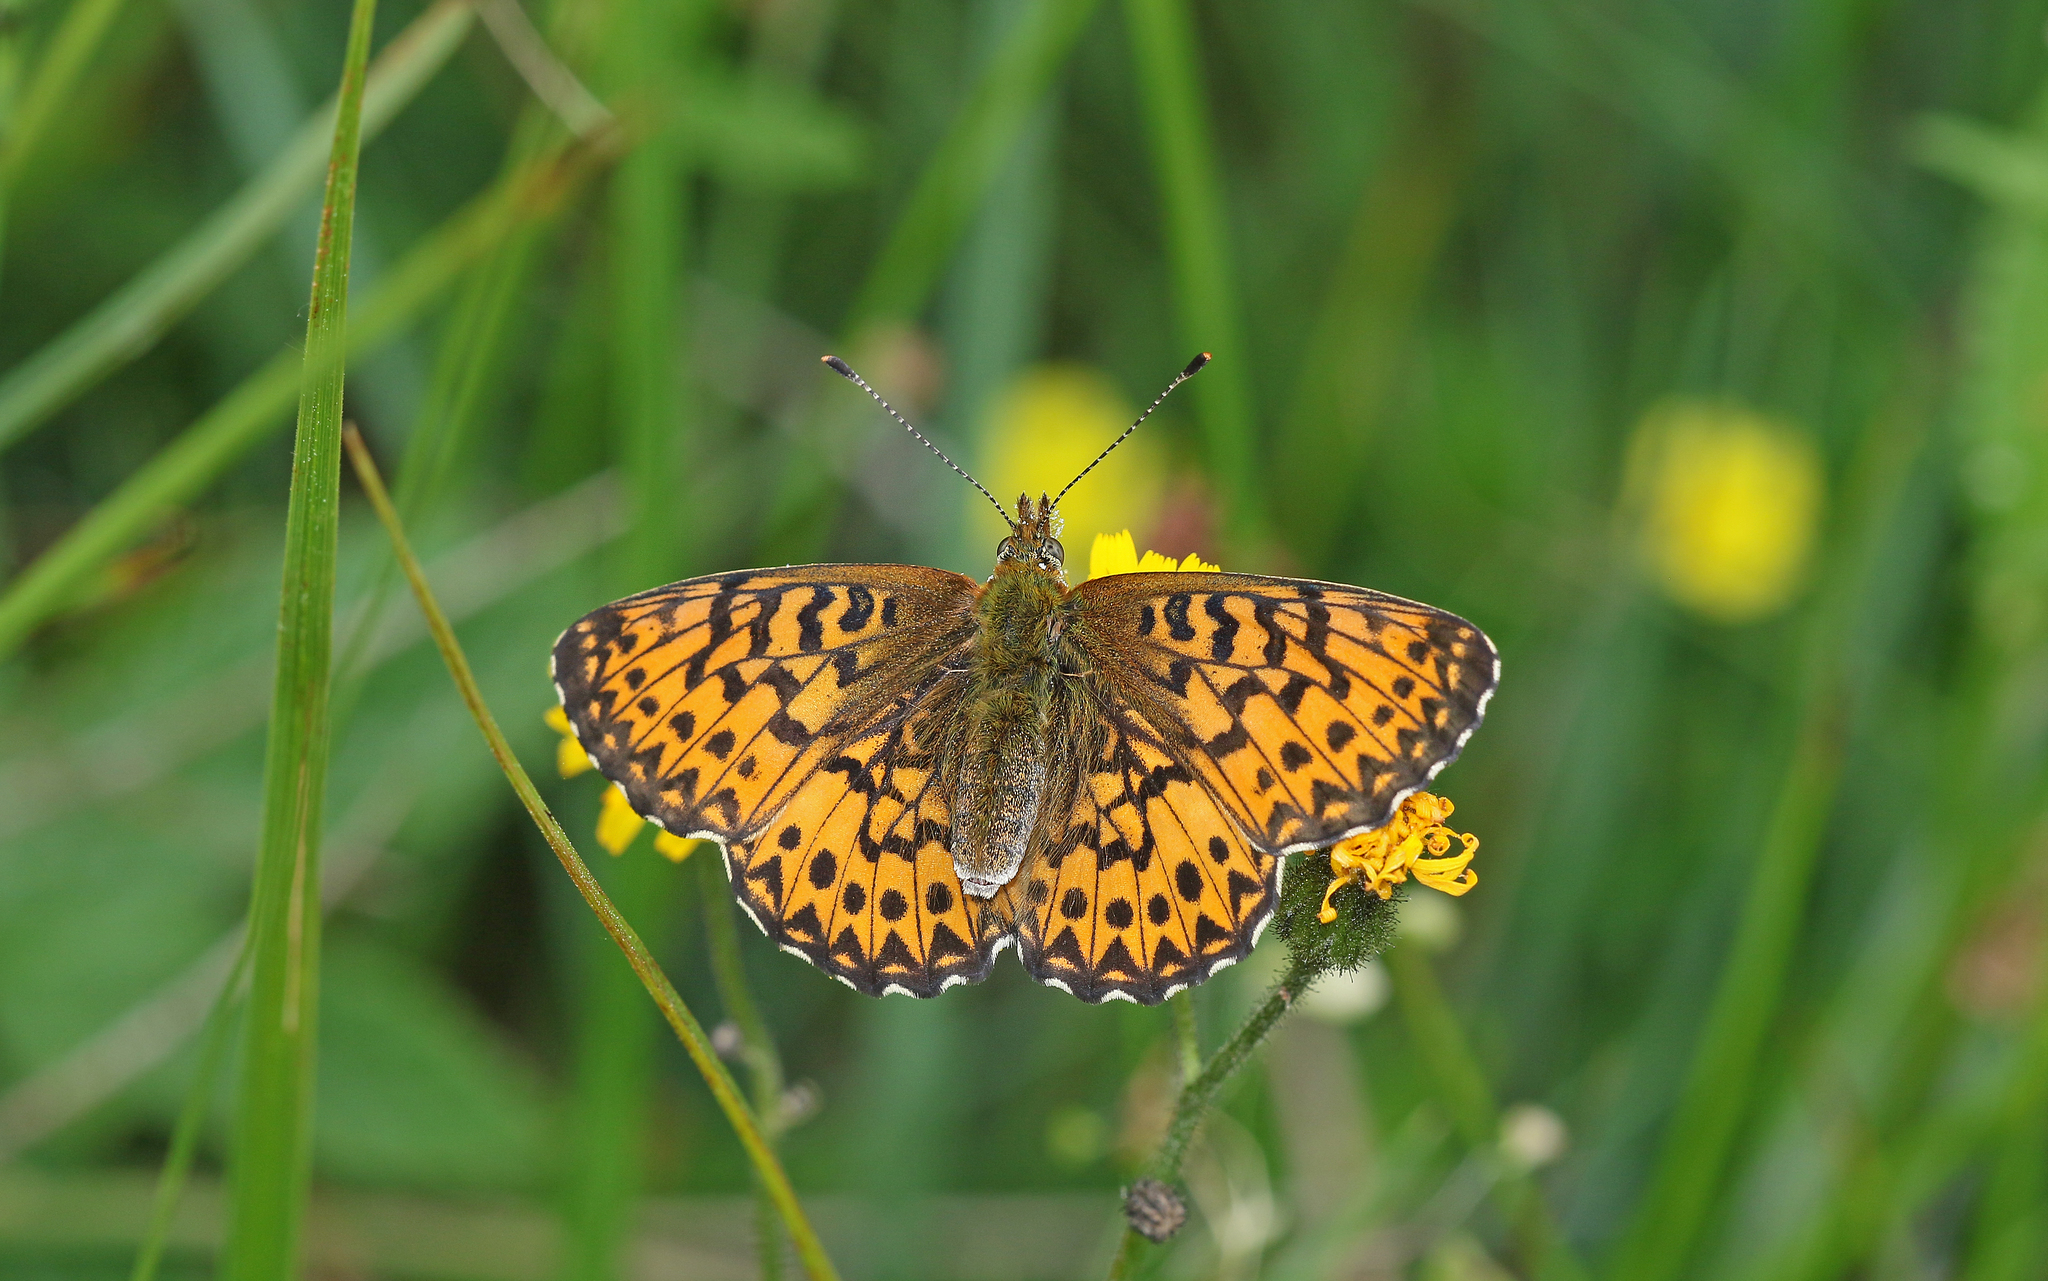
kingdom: Animalia
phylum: Arthropoda
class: Insecta
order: Lepidoptera
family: Nymphalidae
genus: Boloria
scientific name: Boloria titania
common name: Titania's fritillary
